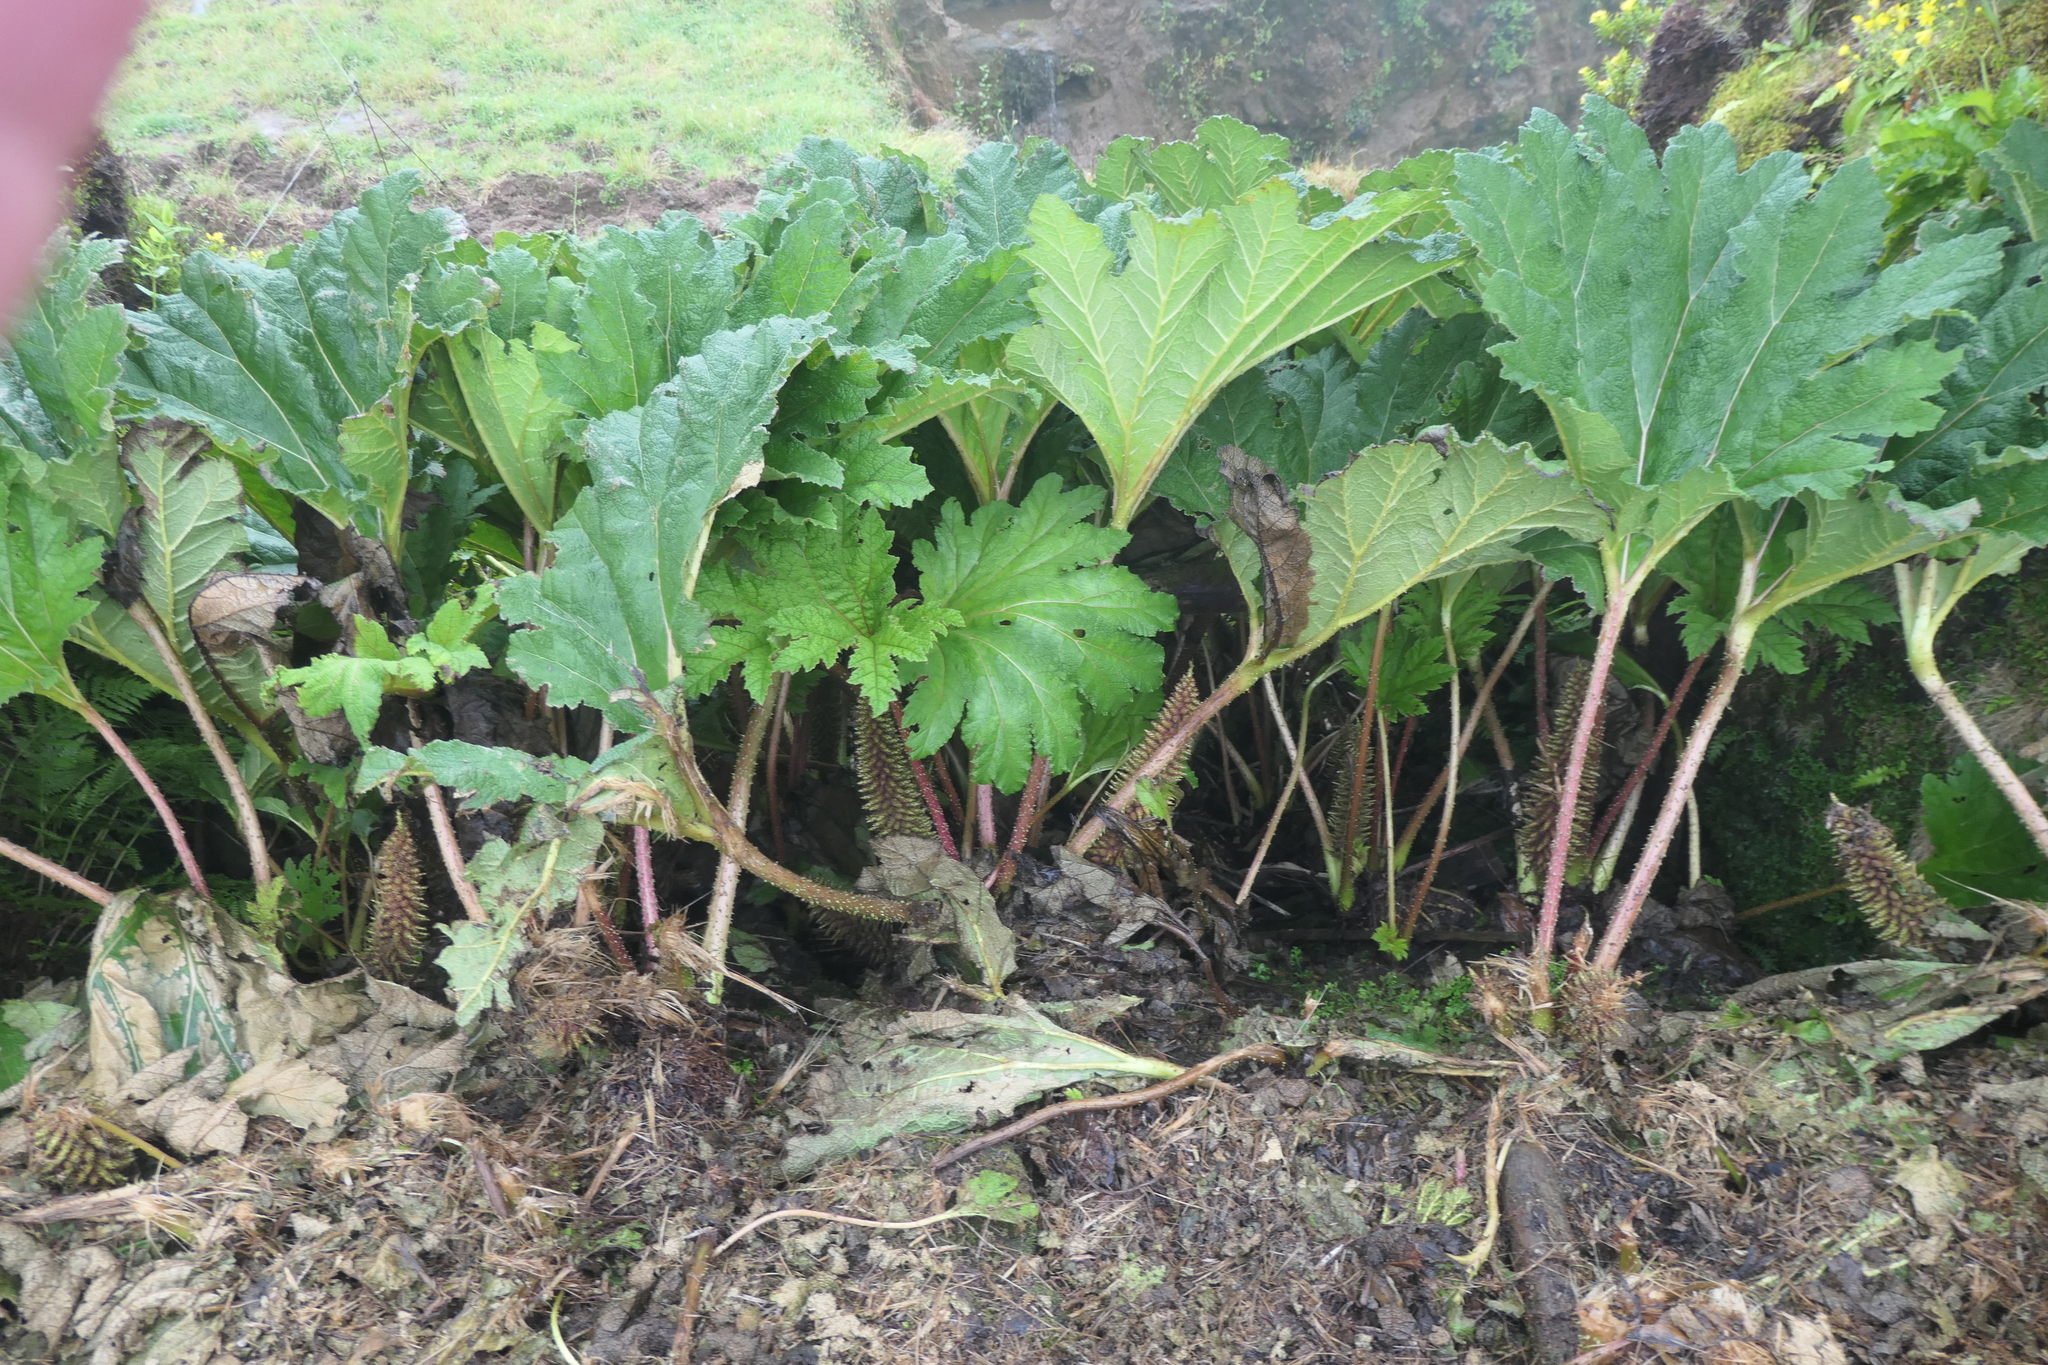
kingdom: Plantae
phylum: Tracheophyta
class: Magnoliopsida
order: Gunnerales
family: Gunneraceae
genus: Gunnera
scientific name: Gunnera tinctoria
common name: Giant-rhubarb
